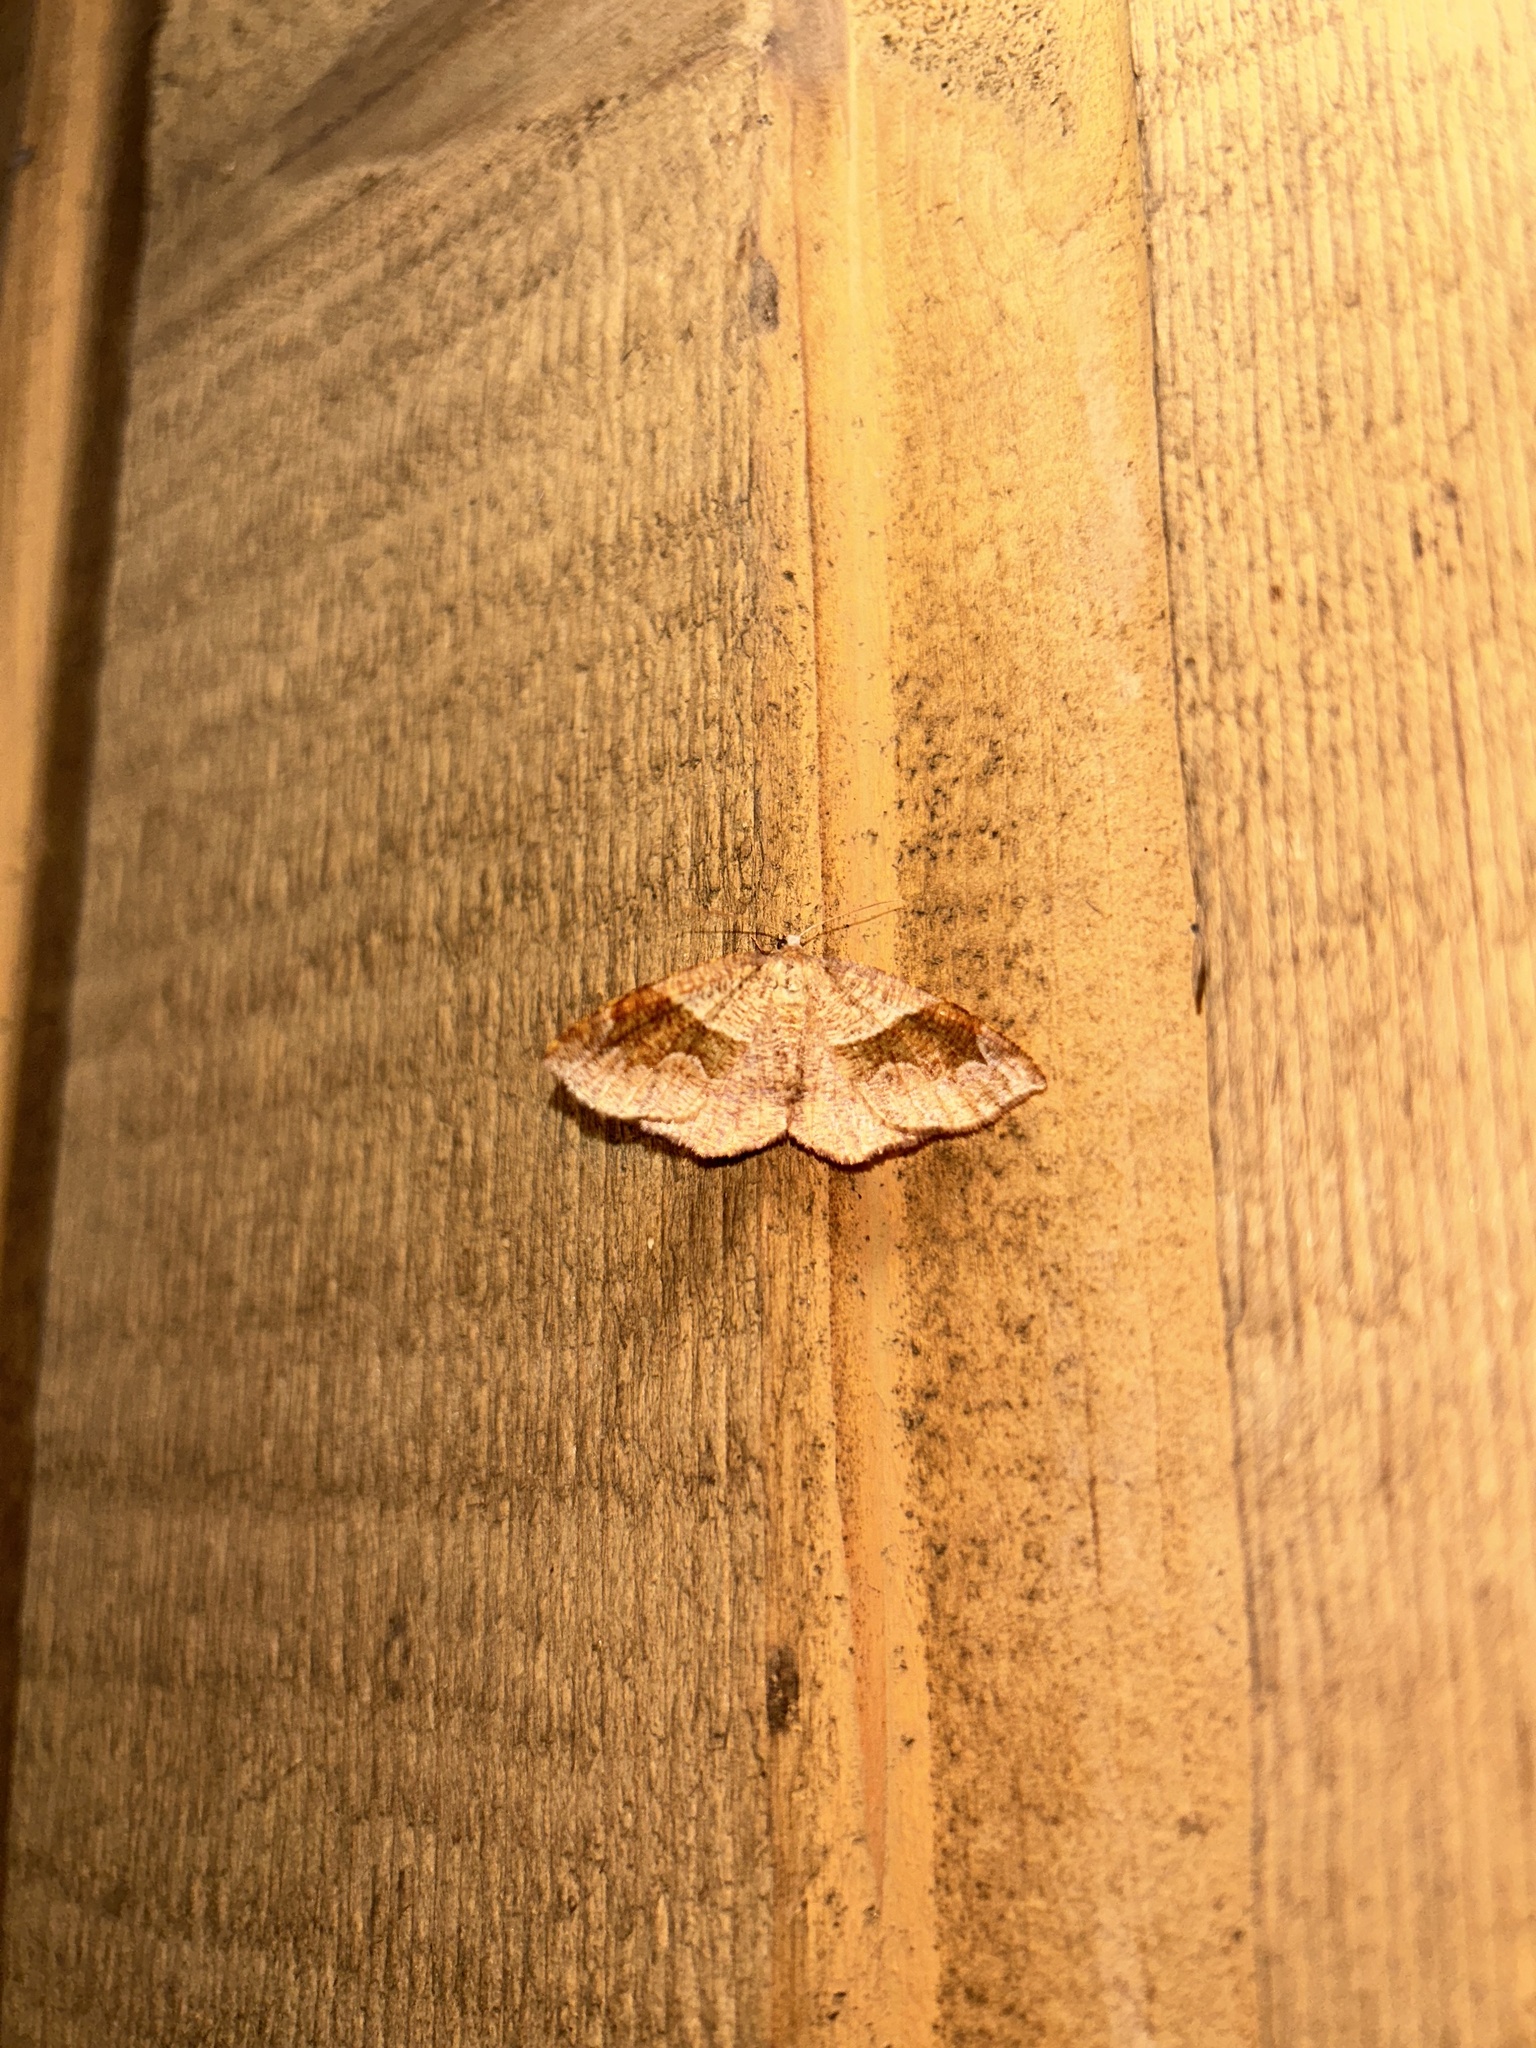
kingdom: Animalia
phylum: Arthropoda
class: Insecta
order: Lepidoptera
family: Geometridae
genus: Plagodis
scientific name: Plagodis pulveraria
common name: Barred umber
